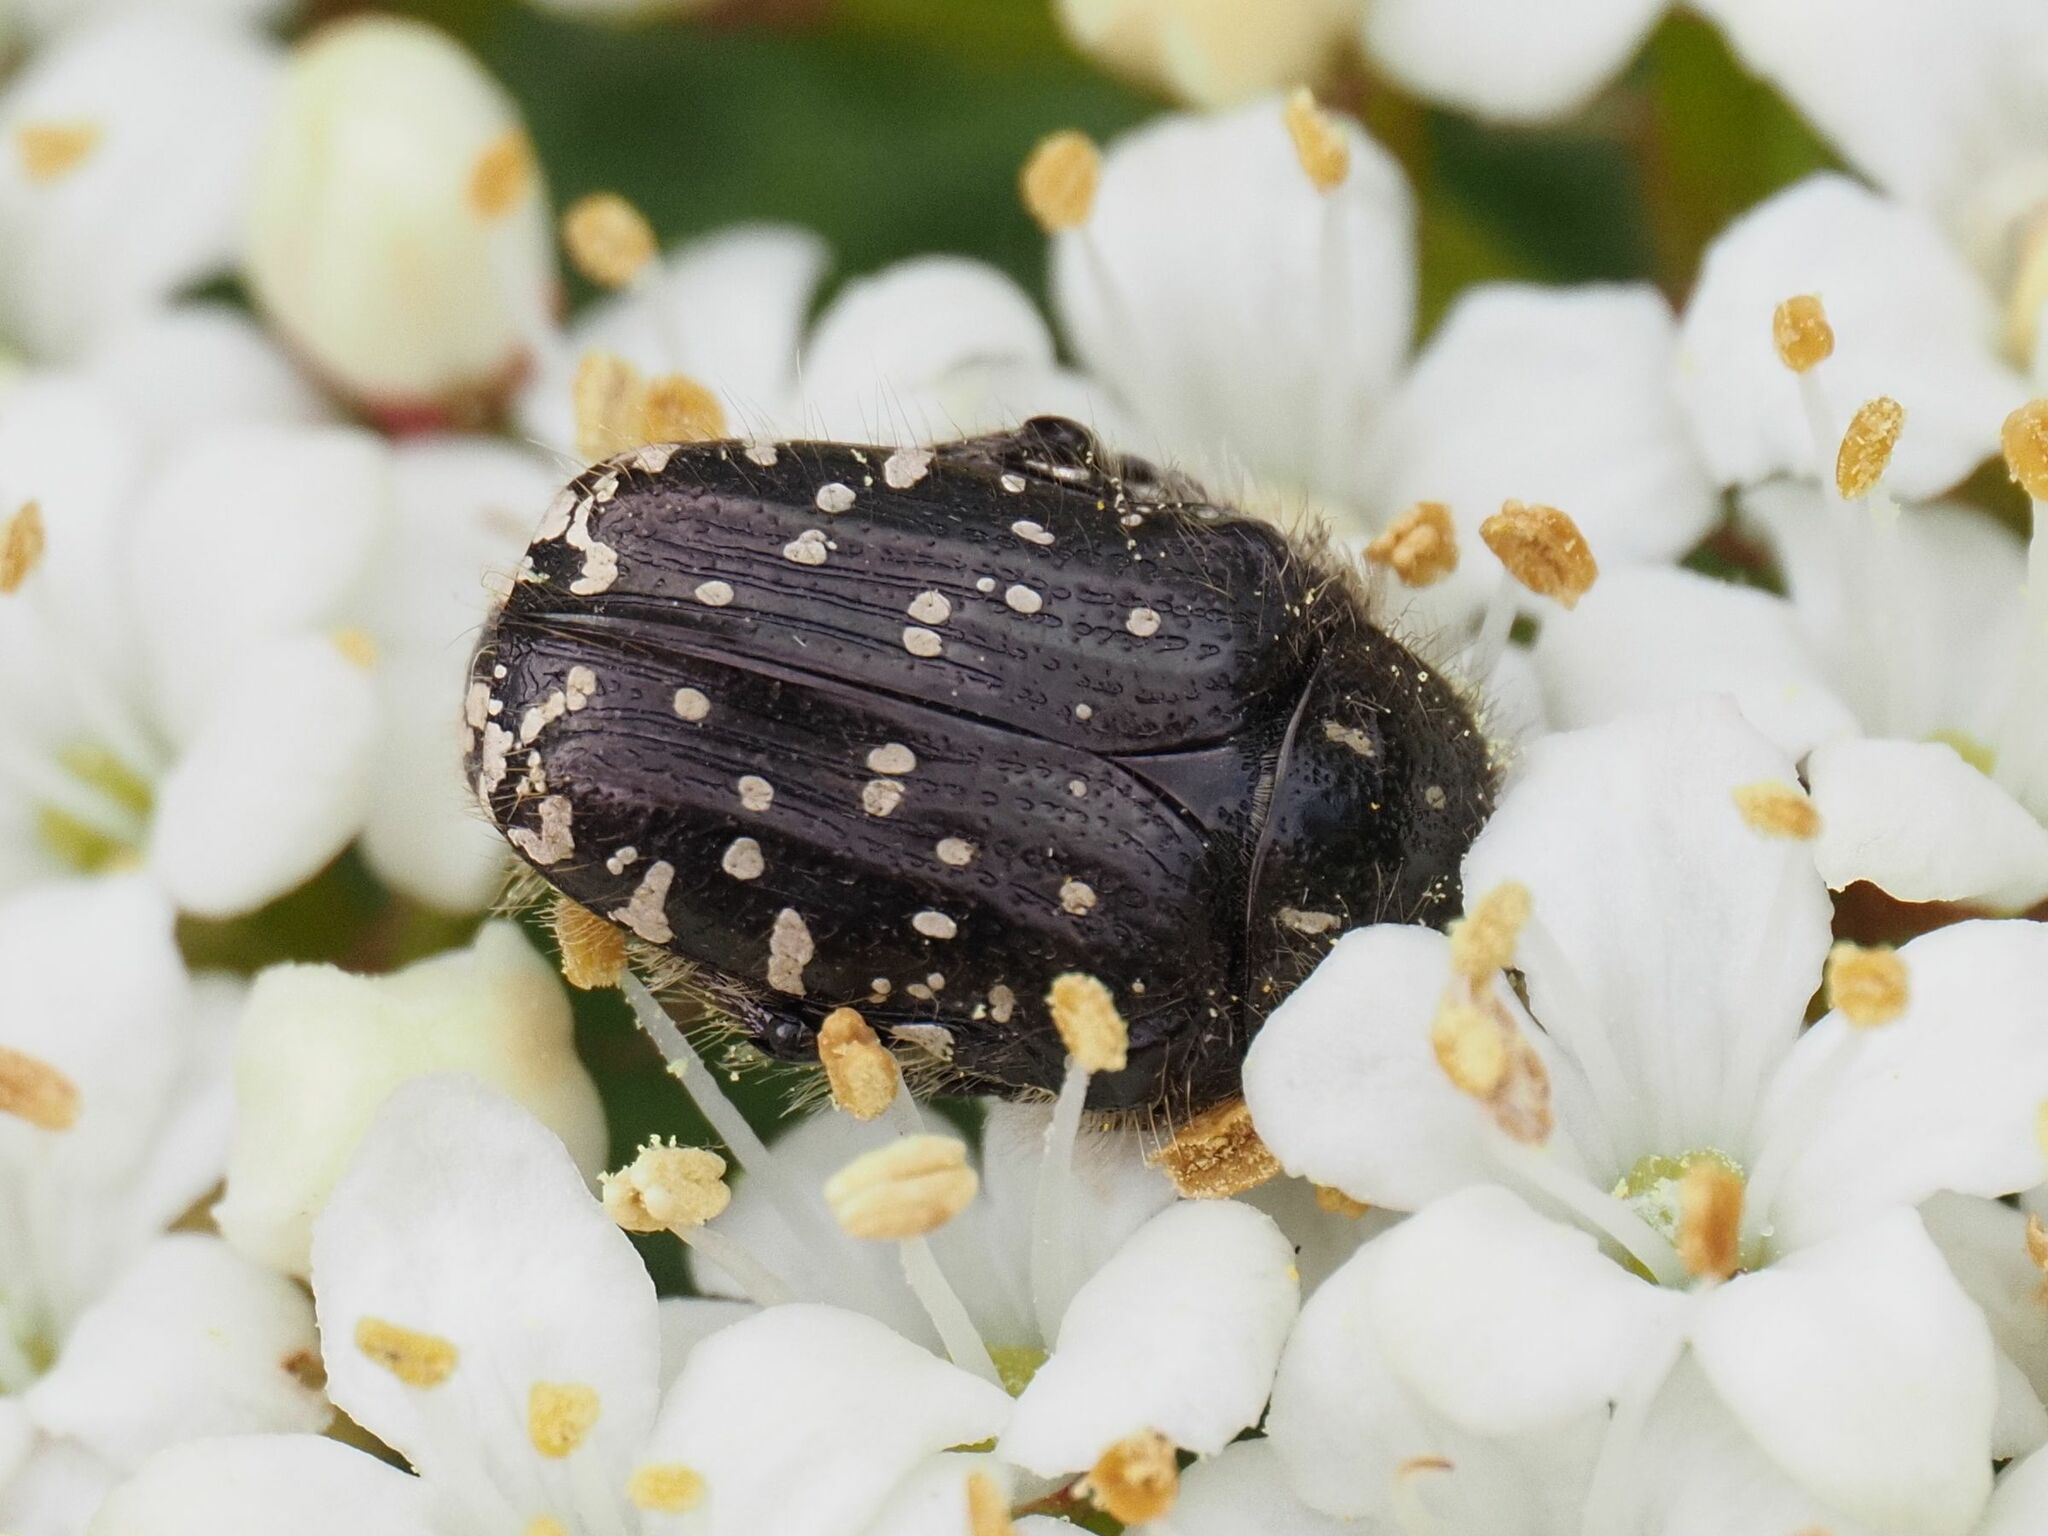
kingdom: Animalia
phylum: Arthropoda
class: Insecta
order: Coleoptera
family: Scarabaeidae
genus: Oxythyrea
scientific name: Oxythyrea funesta
